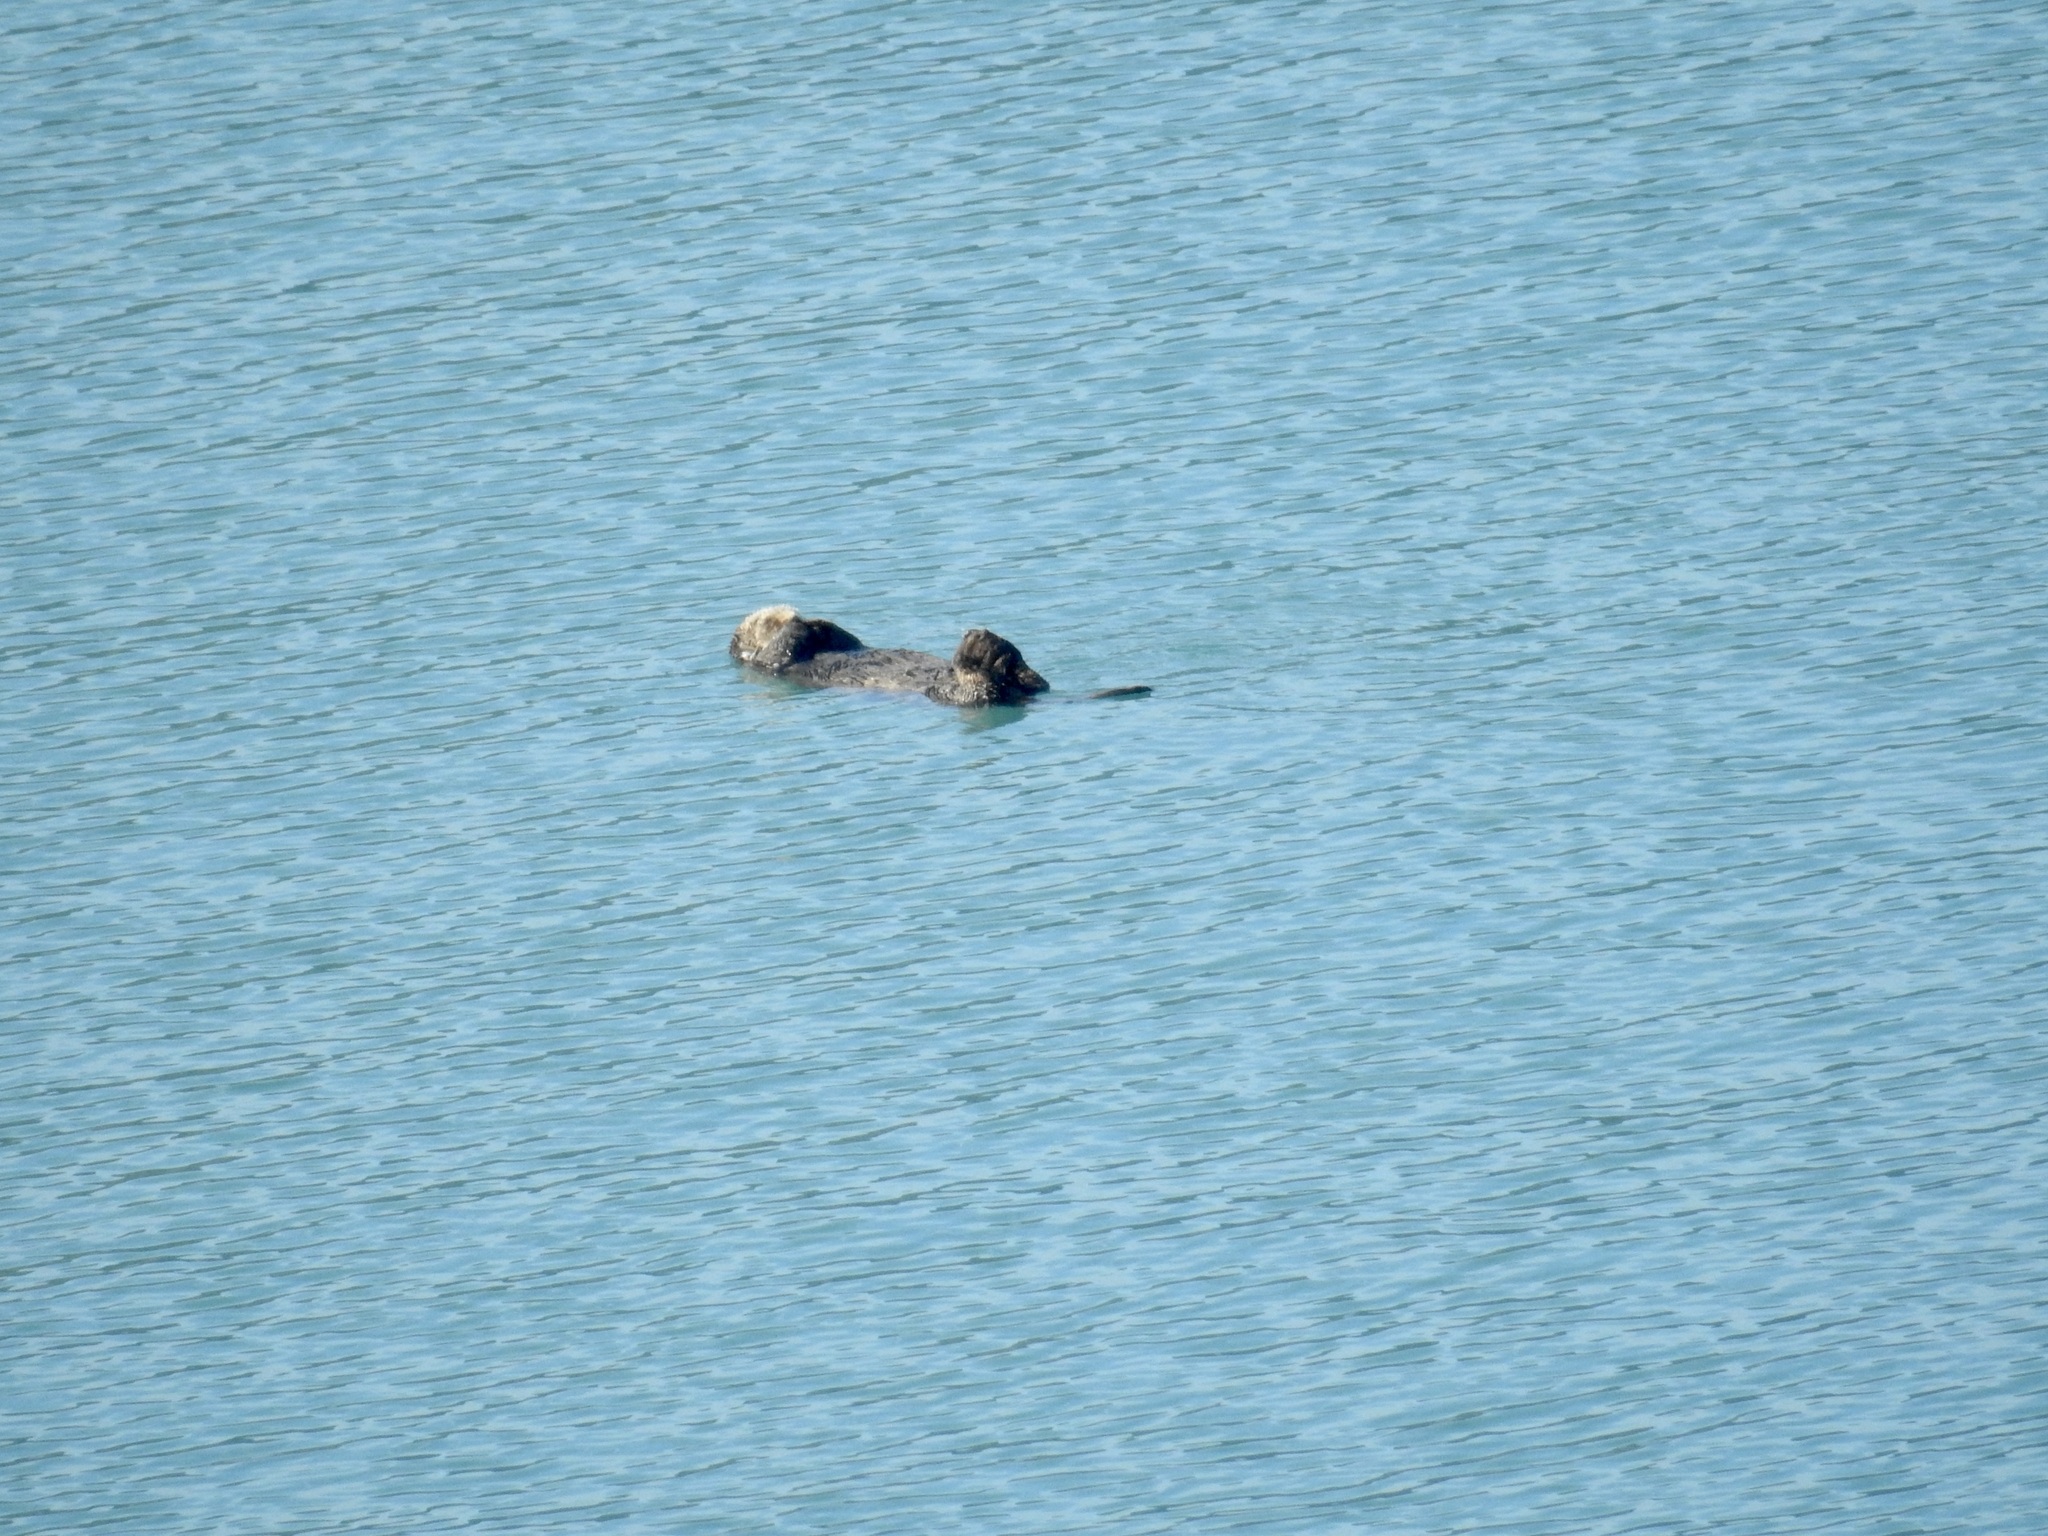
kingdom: Animalia
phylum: Chordata
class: Mammalia
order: Carnivora
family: Mustelidae
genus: Enhydra
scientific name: Enhydra lutris
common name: Sea otter
